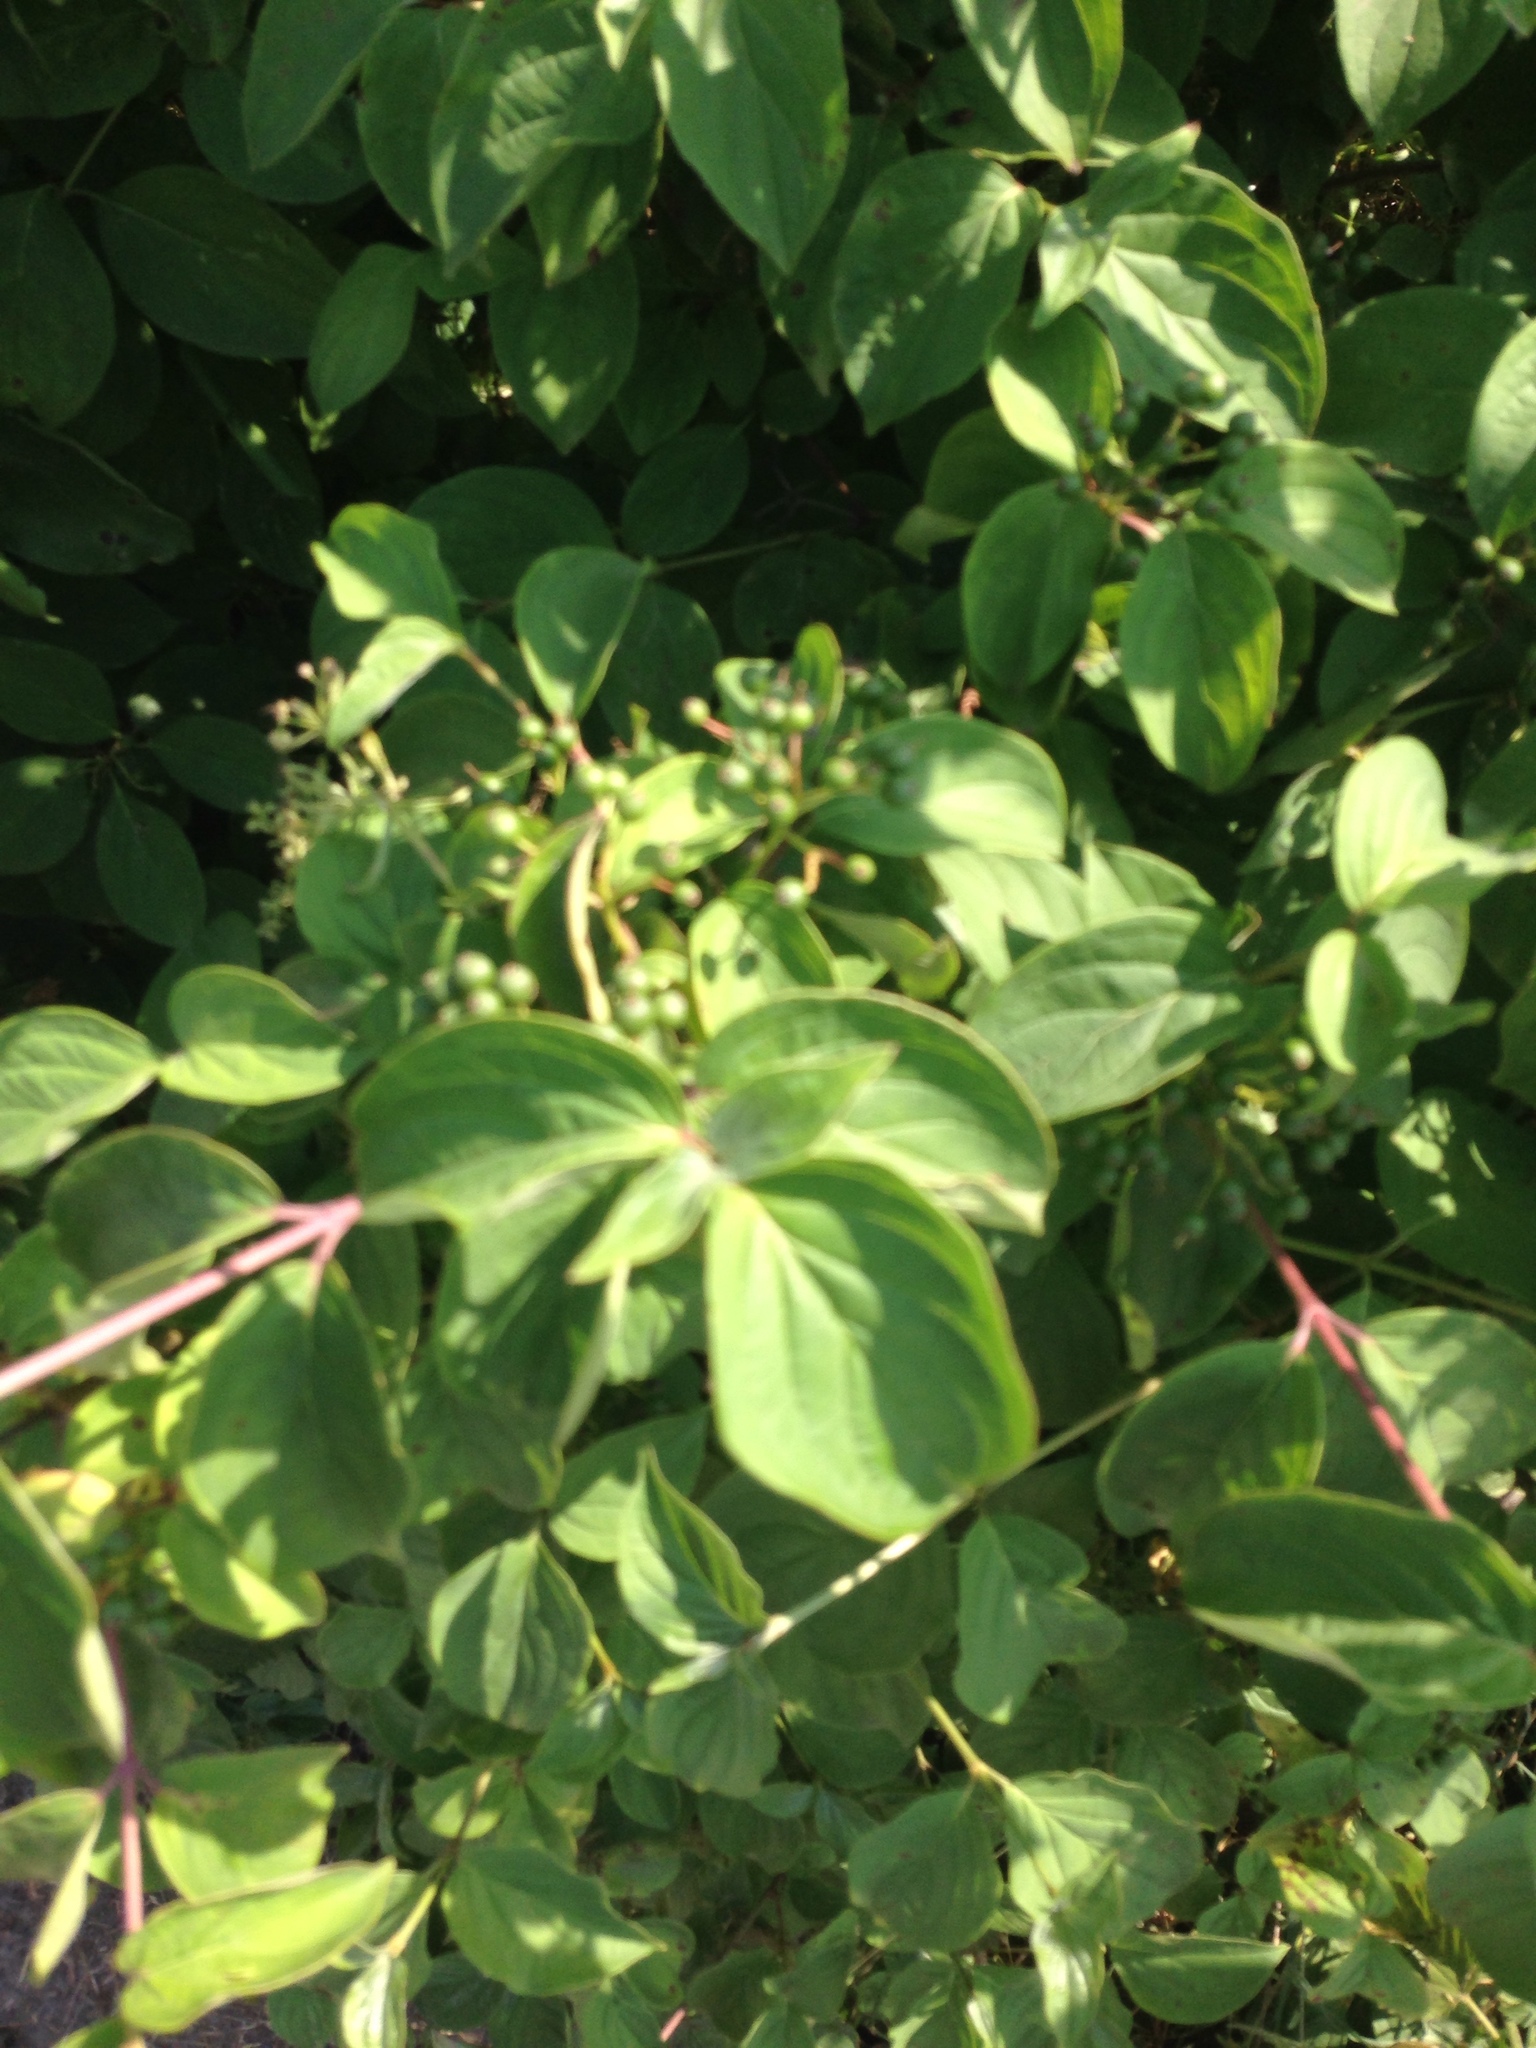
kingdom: Plantae
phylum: Tracheophyta
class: Magnoliopsida
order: Cornales
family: Cornaceae
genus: Cornus
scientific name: Cornus sanguinea
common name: Dogwood
